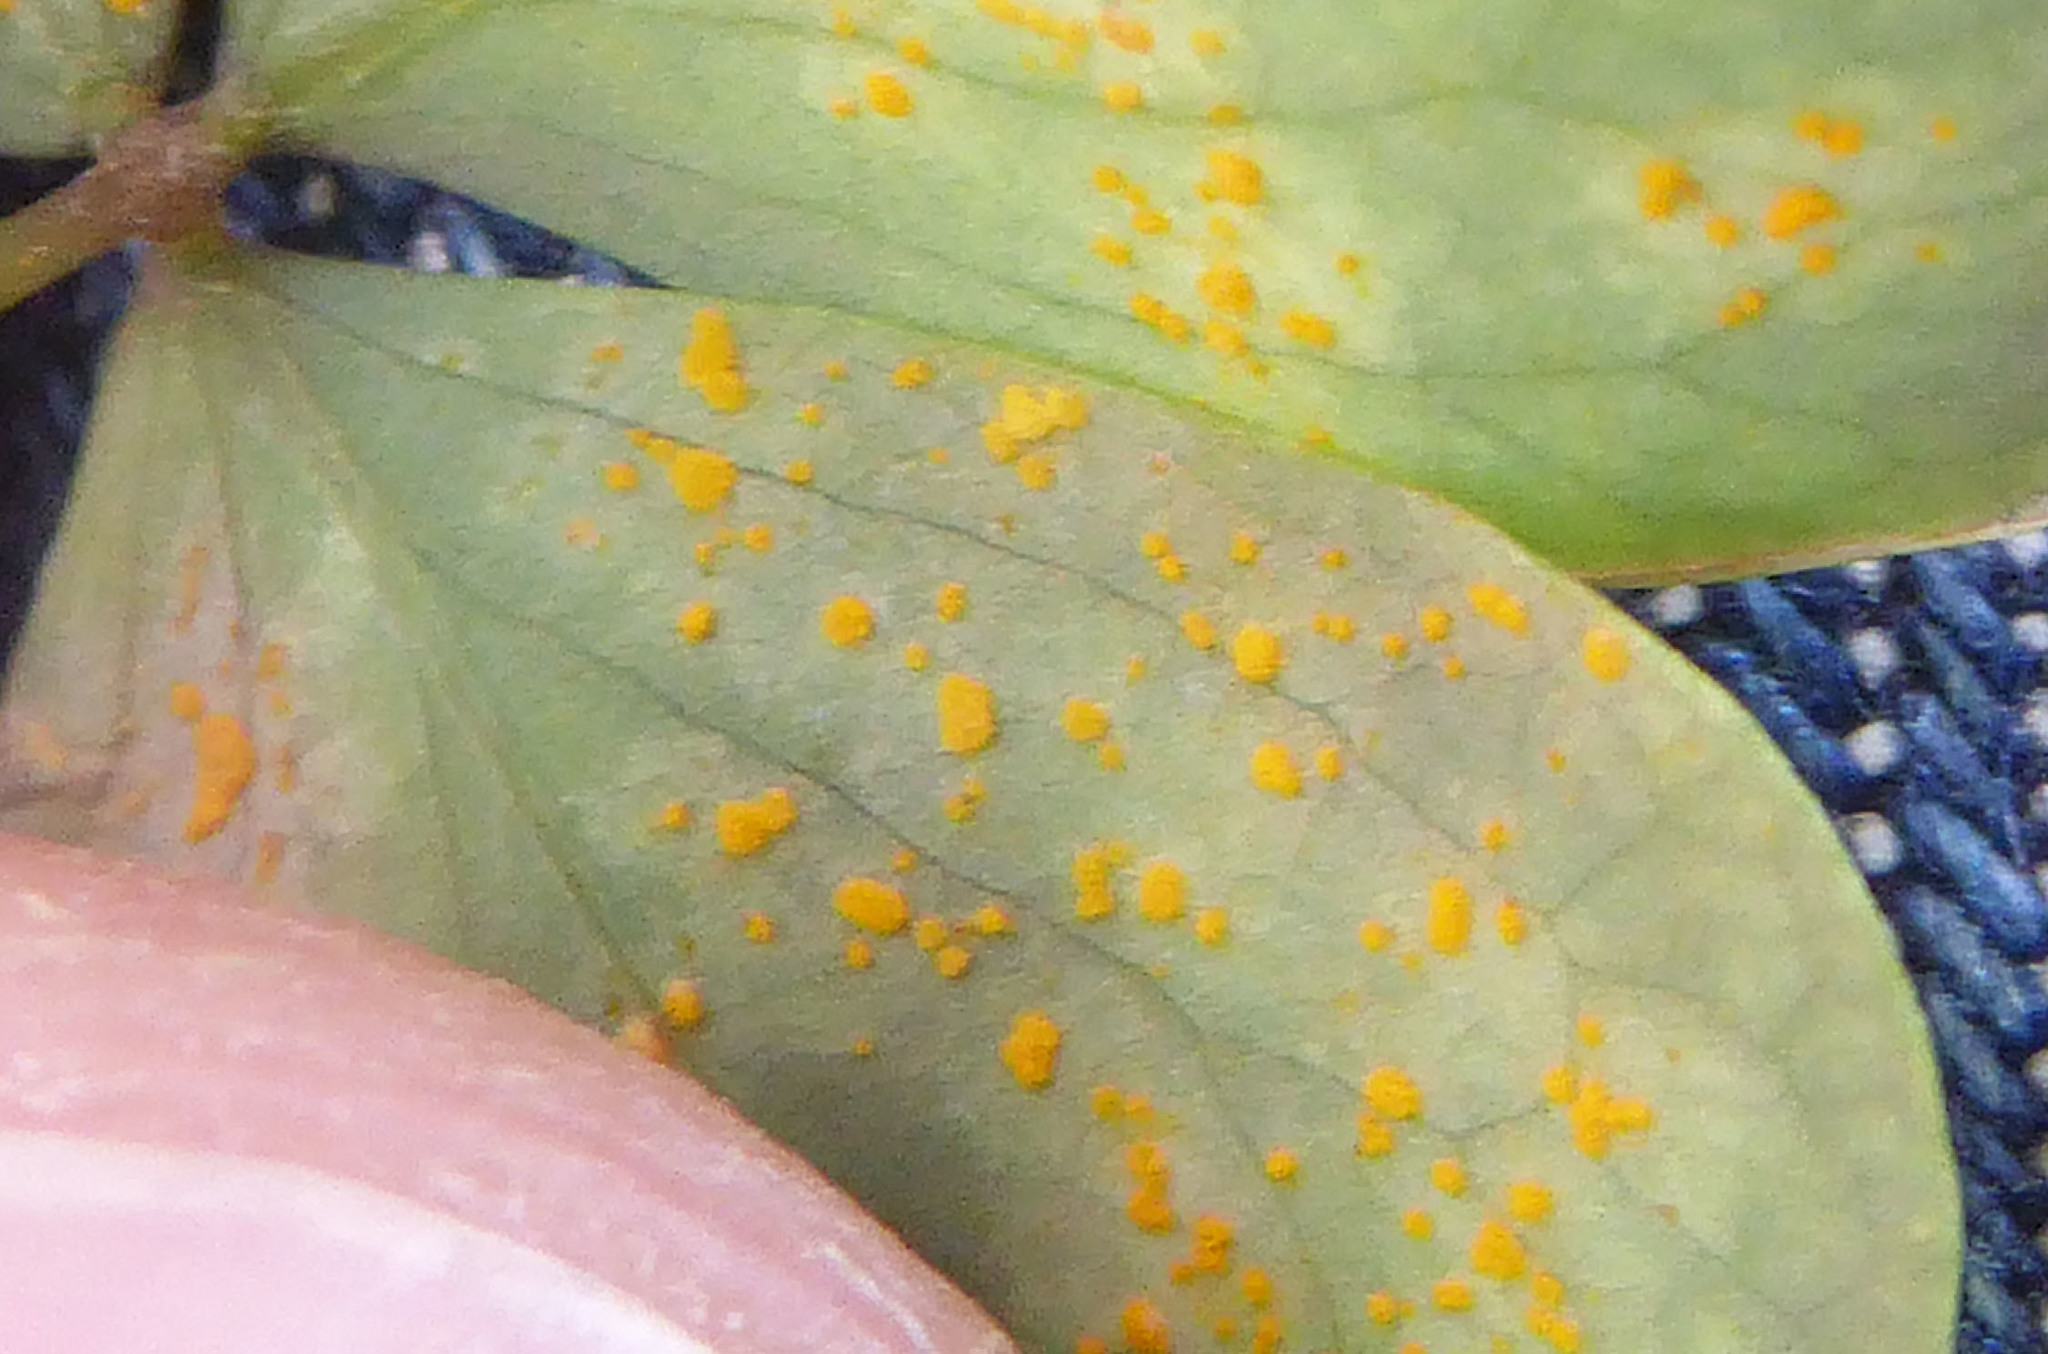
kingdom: Fungi
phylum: Basidiomycota
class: Pucciniomycetes
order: Pucciniales
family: Pucciniaceae
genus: Puccinia
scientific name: Puccinia oxalidis
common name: Oxalis rust
